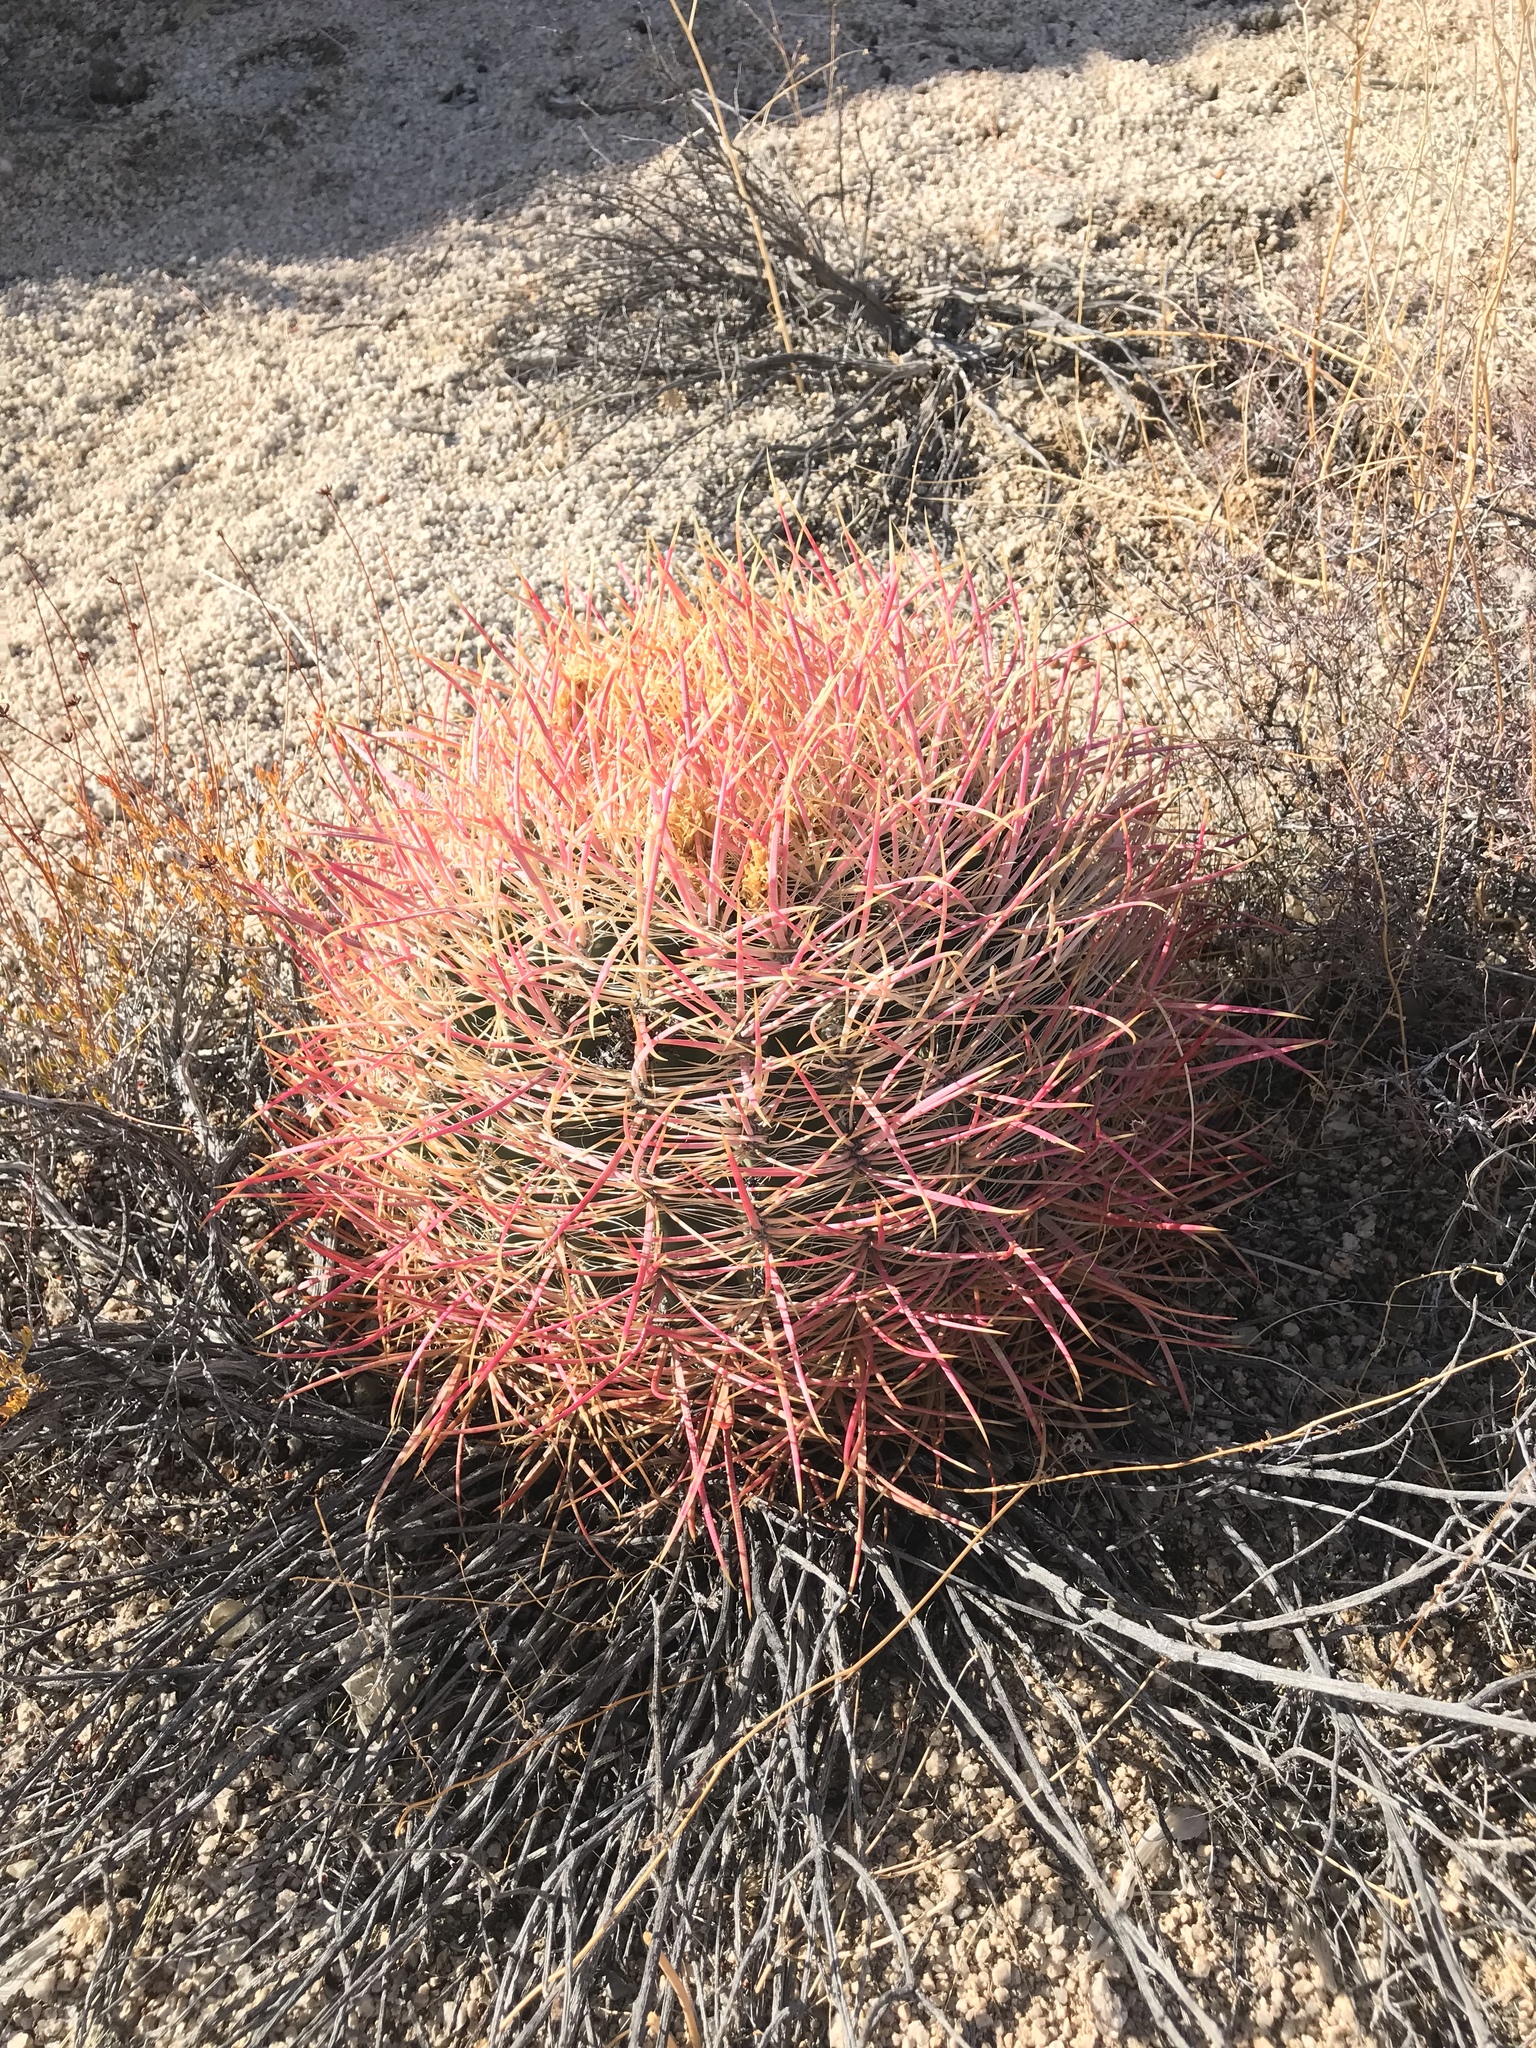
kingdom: Plantae
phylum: Tracheophyta
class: Magnoliopsida
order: Caryophyllales
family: Cactaceae
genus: Ferocactus
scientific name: Ferocactus cylindraceus
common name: California barrel cactus
